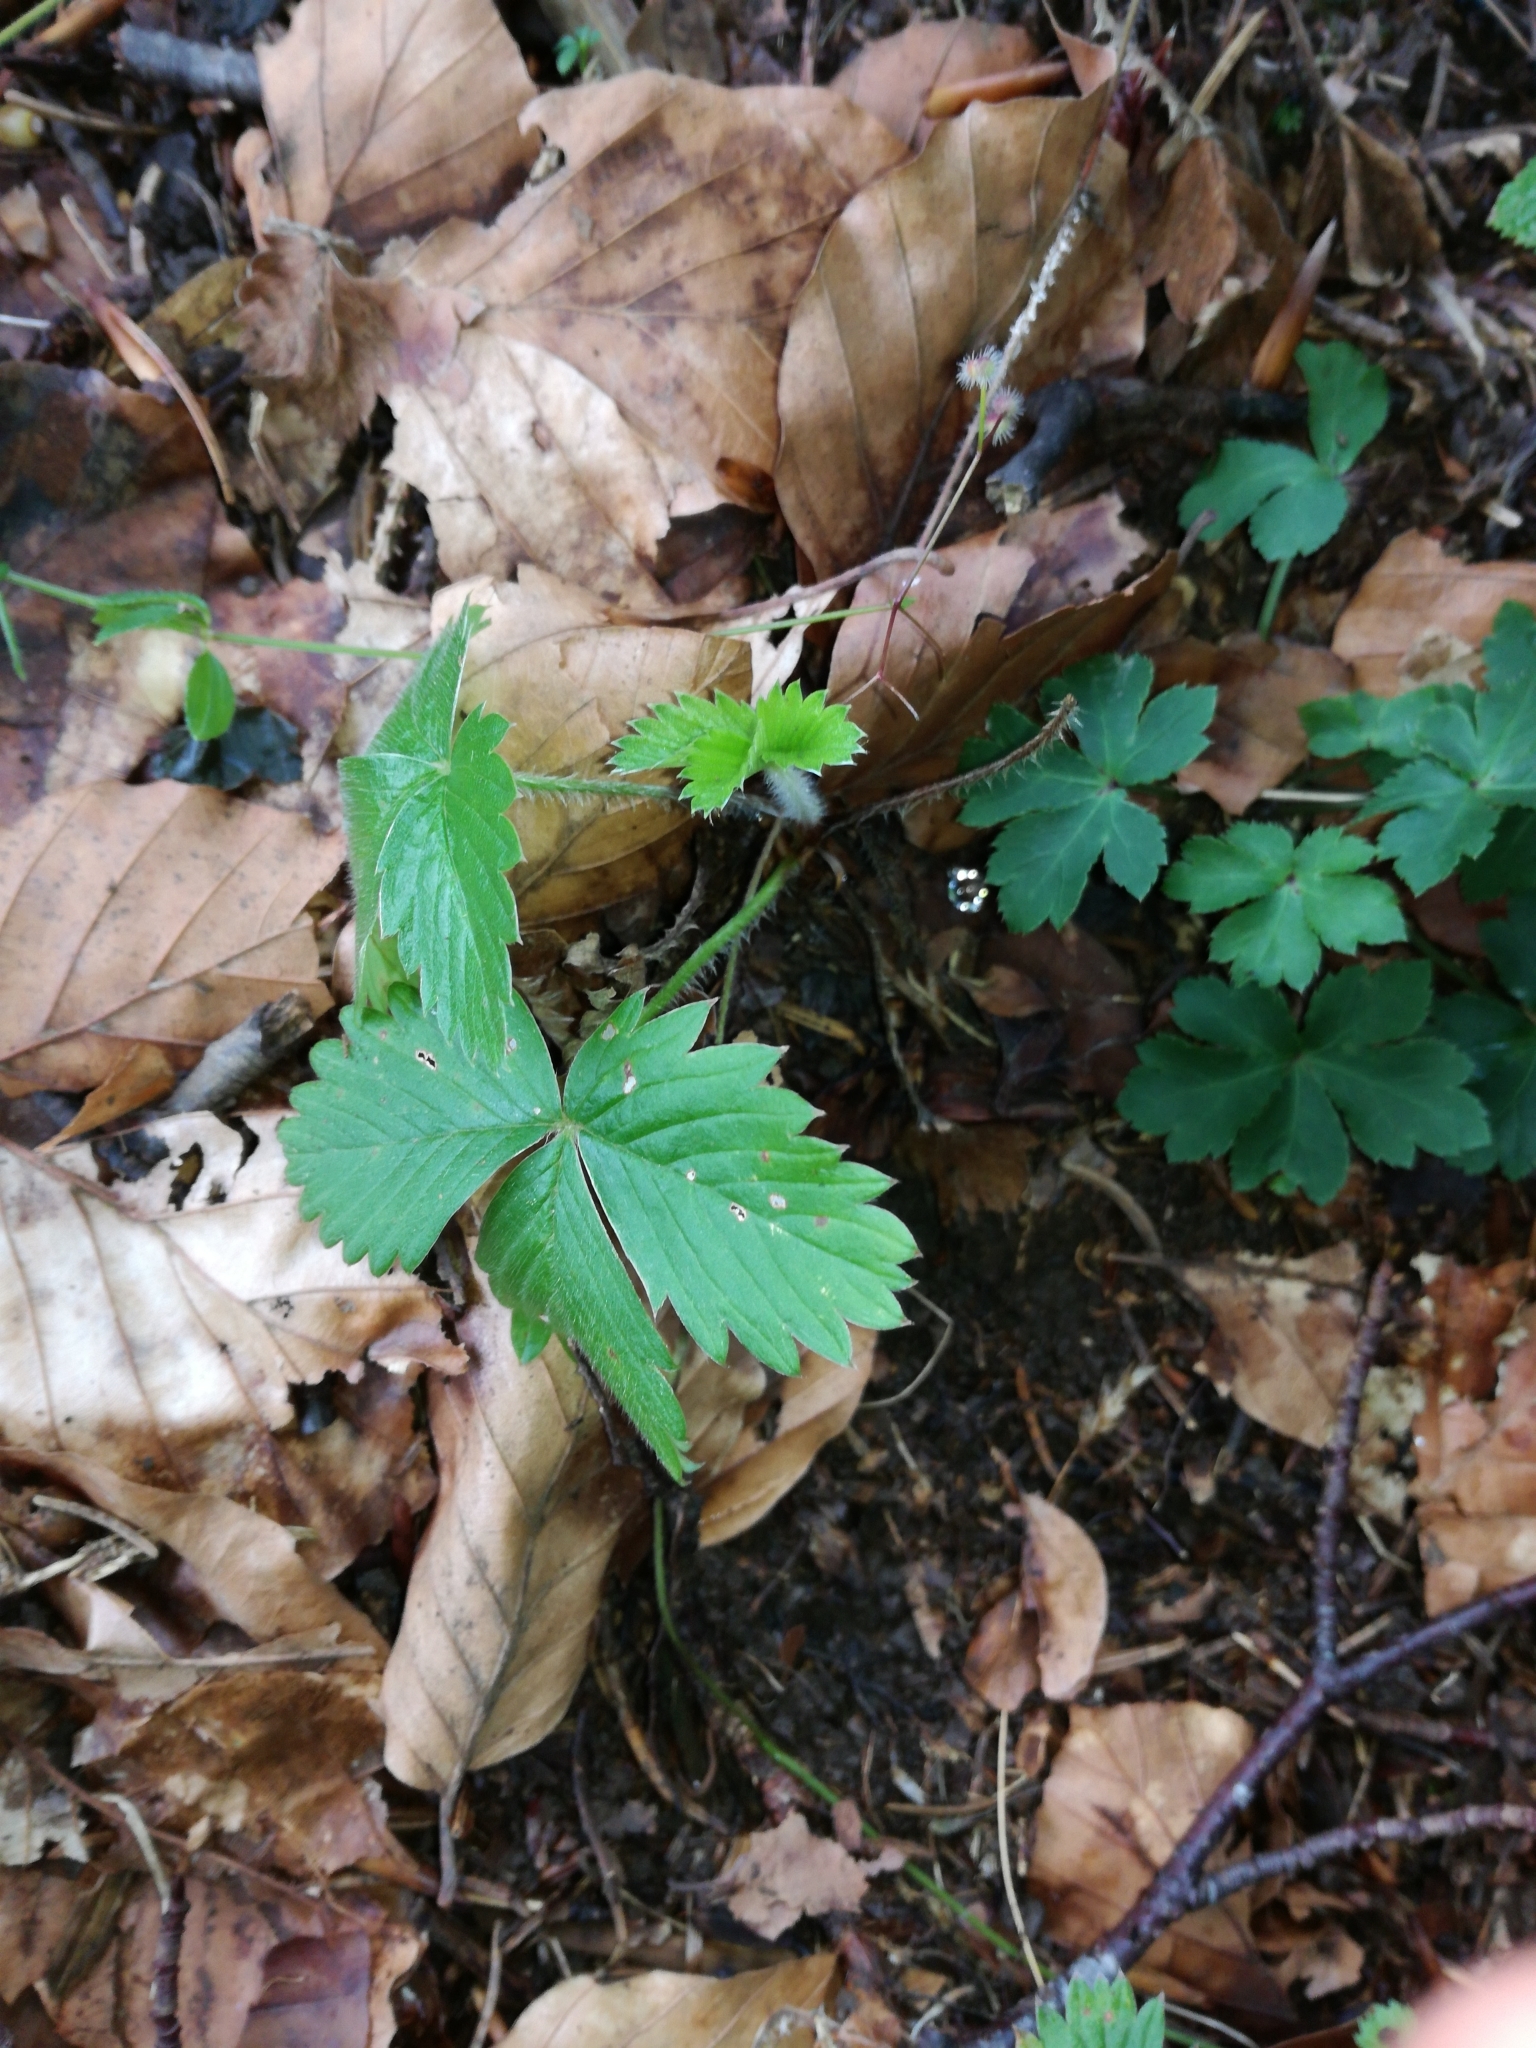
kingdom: Plantae
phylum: Tracheophyta
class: Magnoliopsida
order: Rosales
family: Rosaceae
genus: Fragaria
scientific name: Fragaria vesca
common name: Wild strawberry
